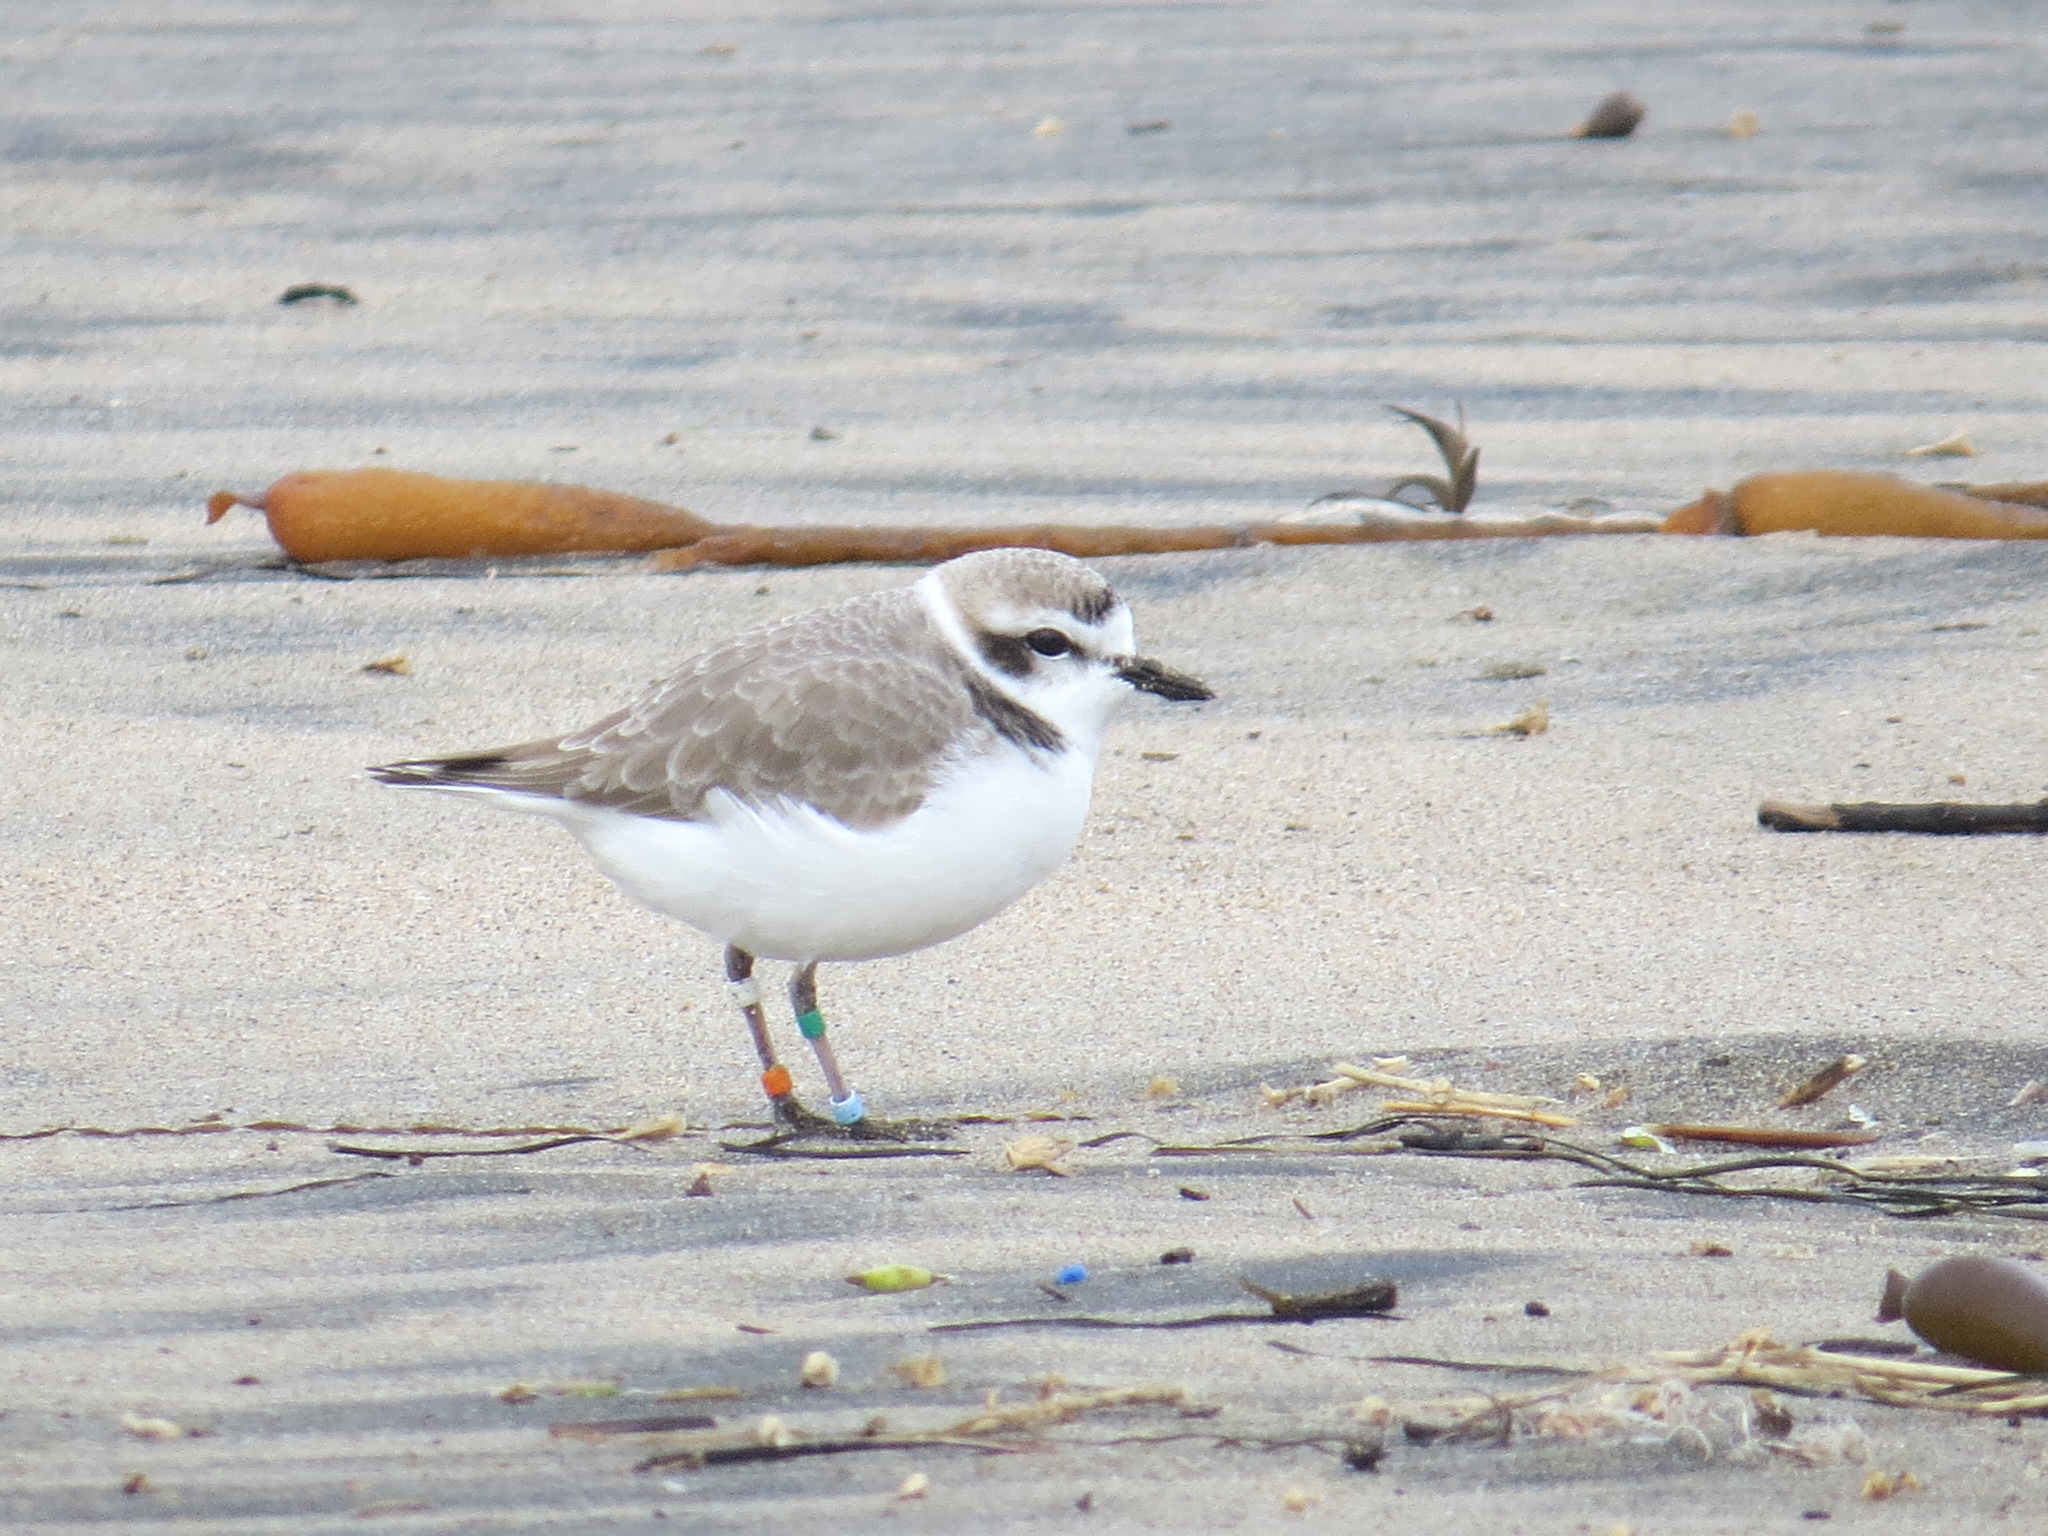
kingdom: Animalia
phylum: Chordata
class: Aves
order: Charadriiformes
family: Charadriidae
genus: Anarhynchus
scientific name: Anarhynchus
